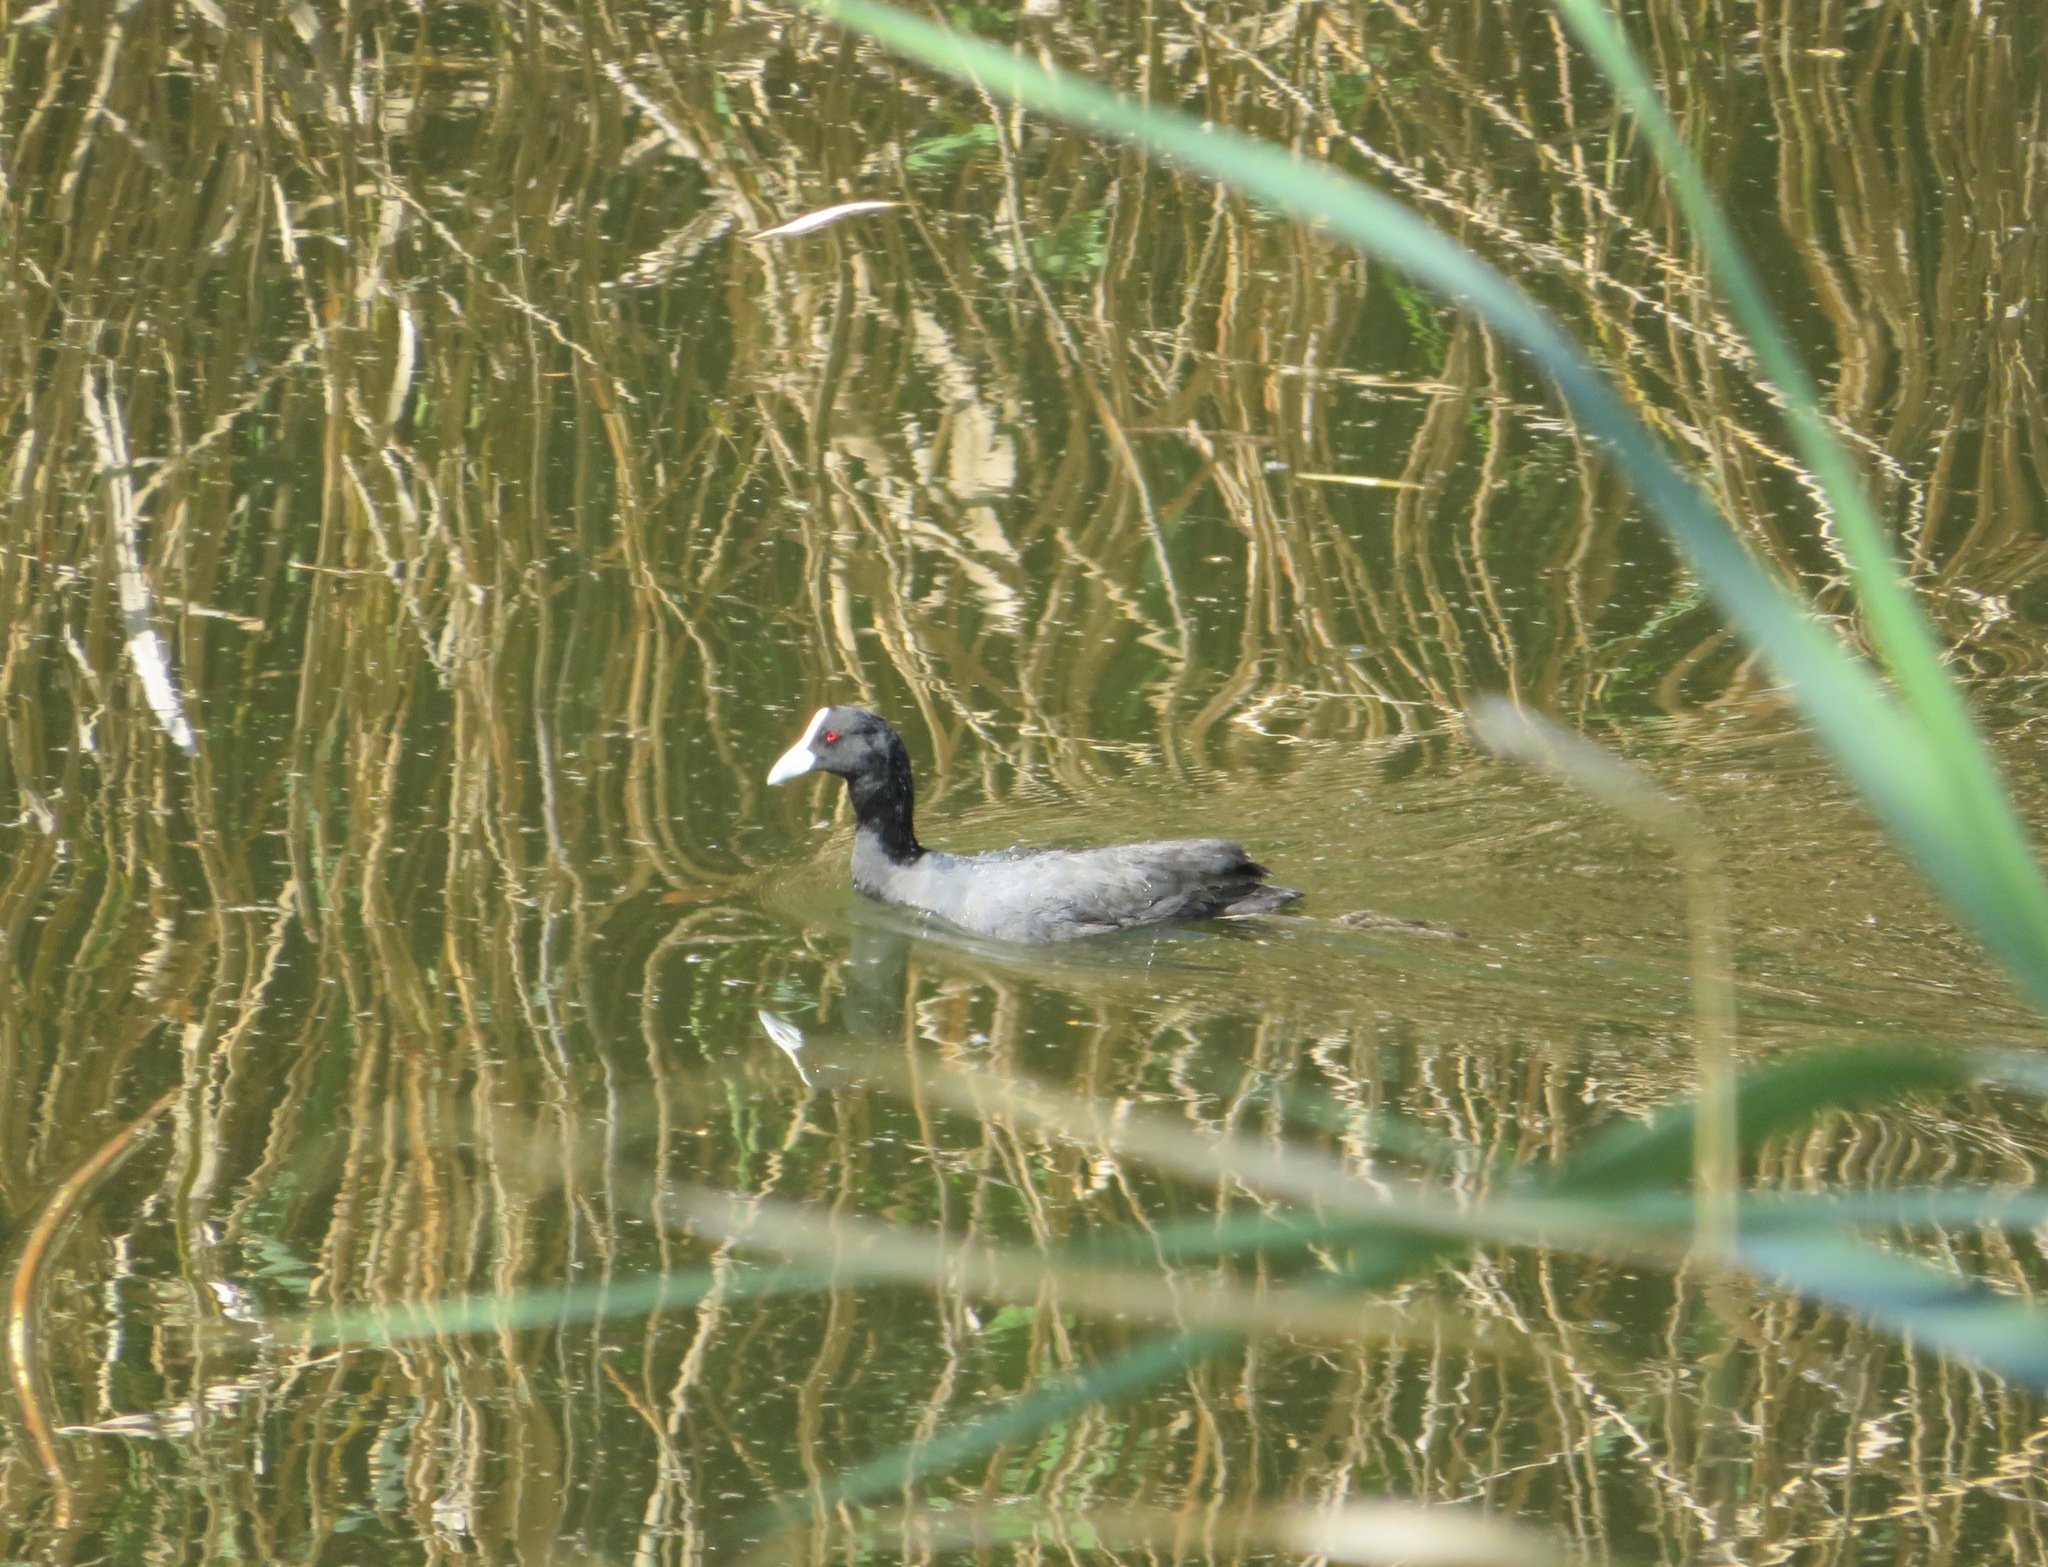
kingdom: Animalia
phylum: Chordata
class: Aves
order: Gruiformes
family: Rallidae
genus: Fulica
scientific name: Fulica atra
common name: Eurasian coot
